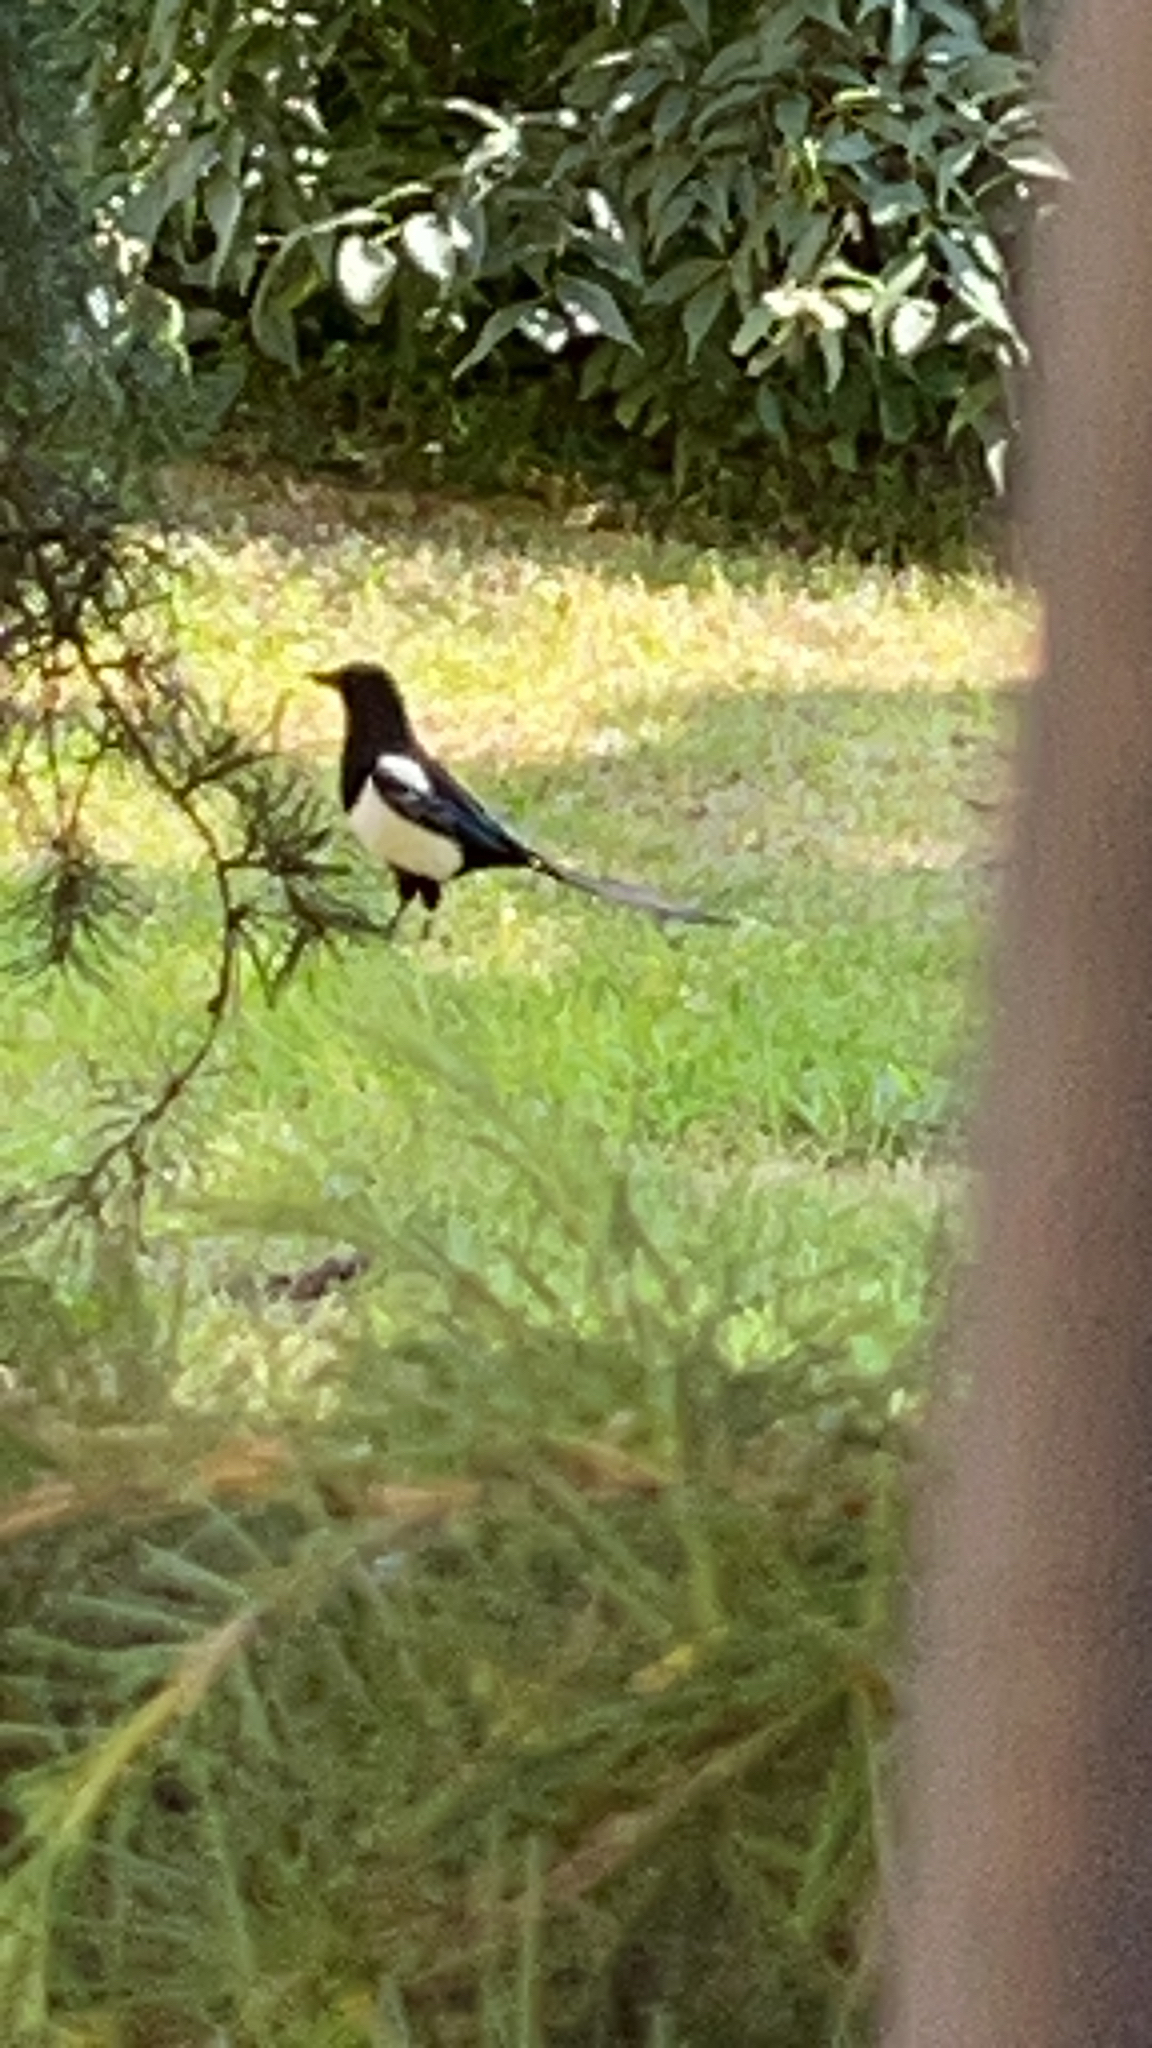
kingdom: Animalia
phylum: Chordata
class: Aves
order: Passeriformes
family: Corvidae
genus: Pica
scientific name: Pica pica
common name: Eurasian magpie
